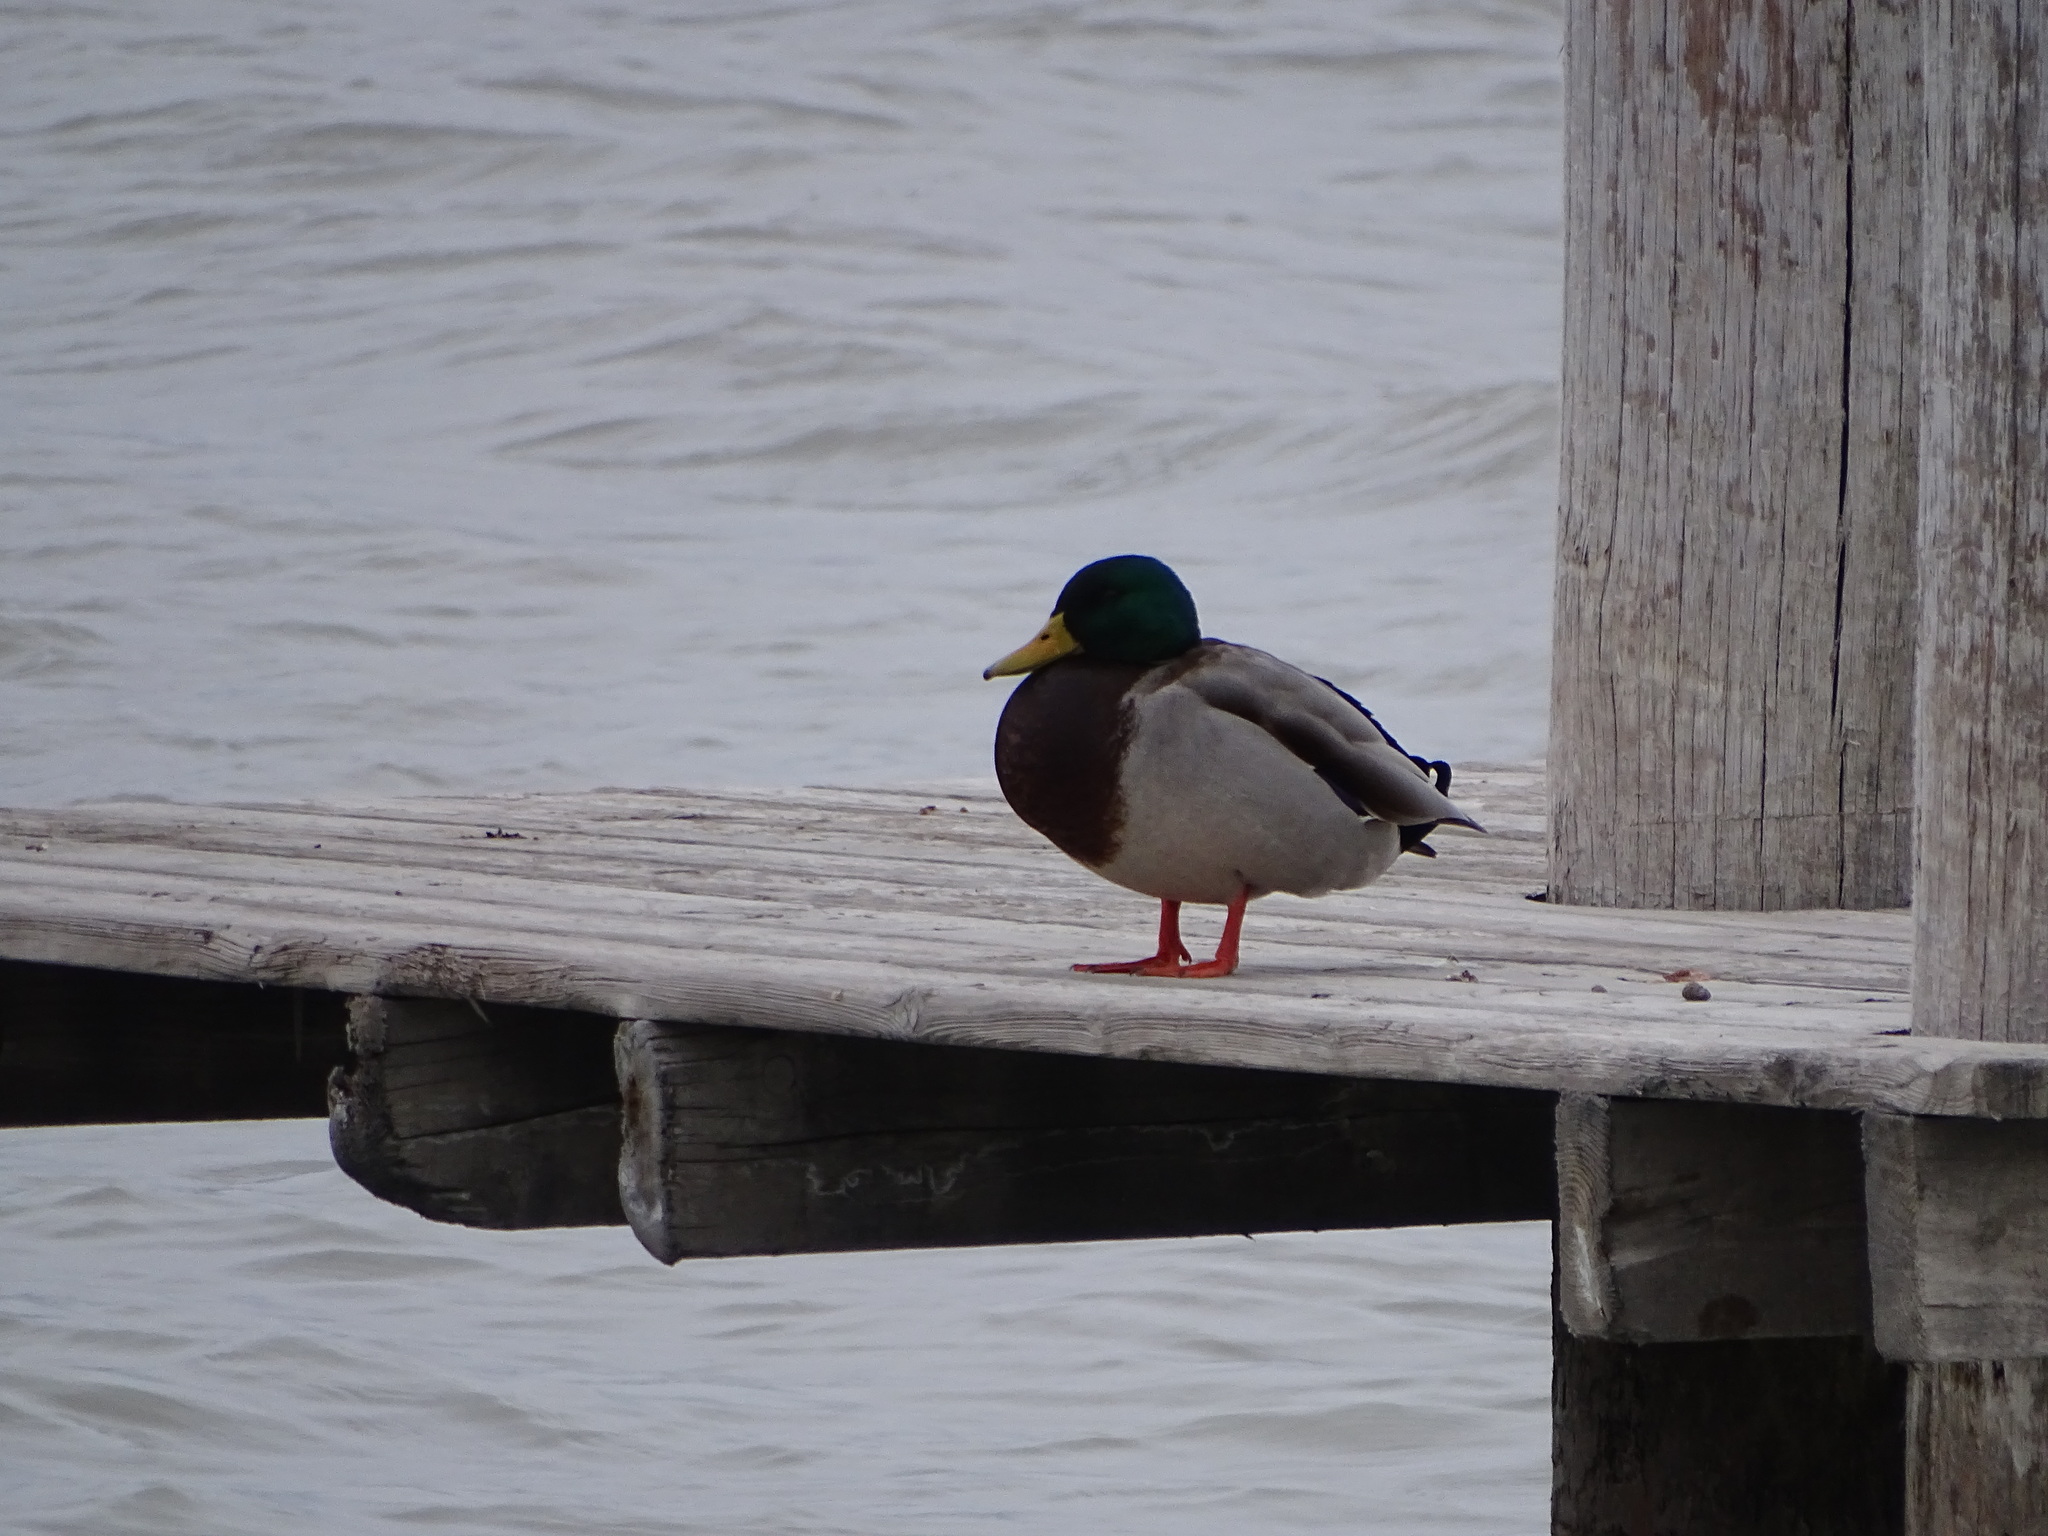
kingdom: Animalia
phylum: Chordata
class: Aves
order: Anseriformes
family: Anatidae
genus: Anas
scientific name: Anas platyrhynchos
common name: Mallard
